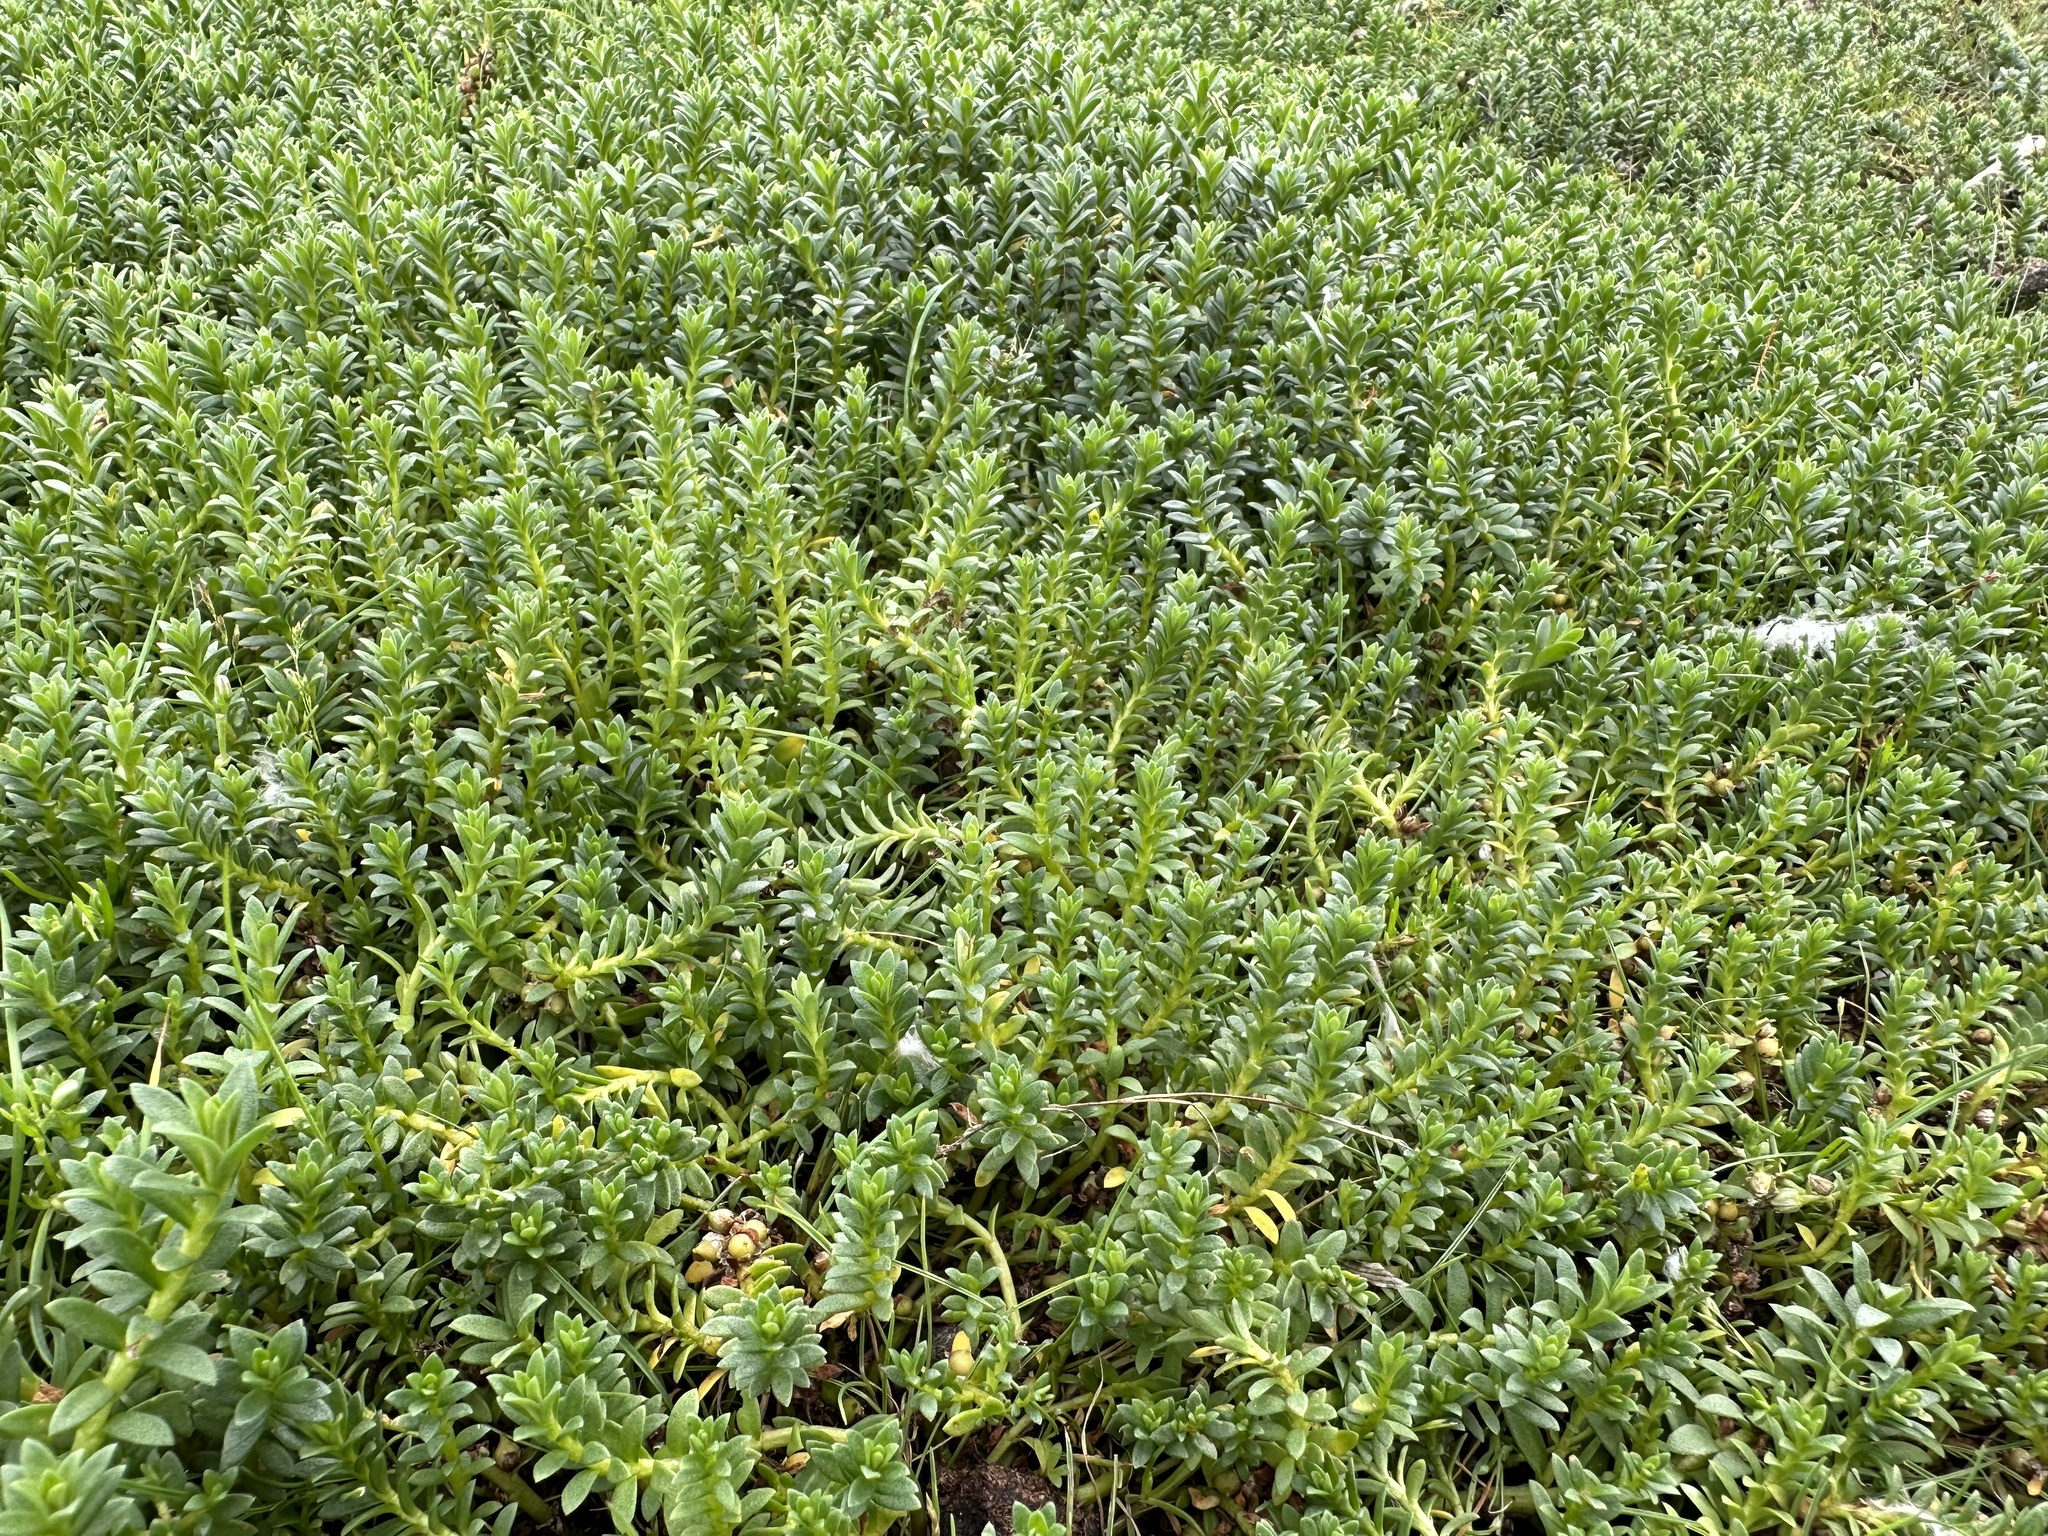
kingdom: Plantae
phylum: Tracheophyta
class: Magnoliopsida
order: Ericales
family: Primulaceae
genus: Lysimachia
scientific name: Lysimachia maritima
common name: Sea milkwort
